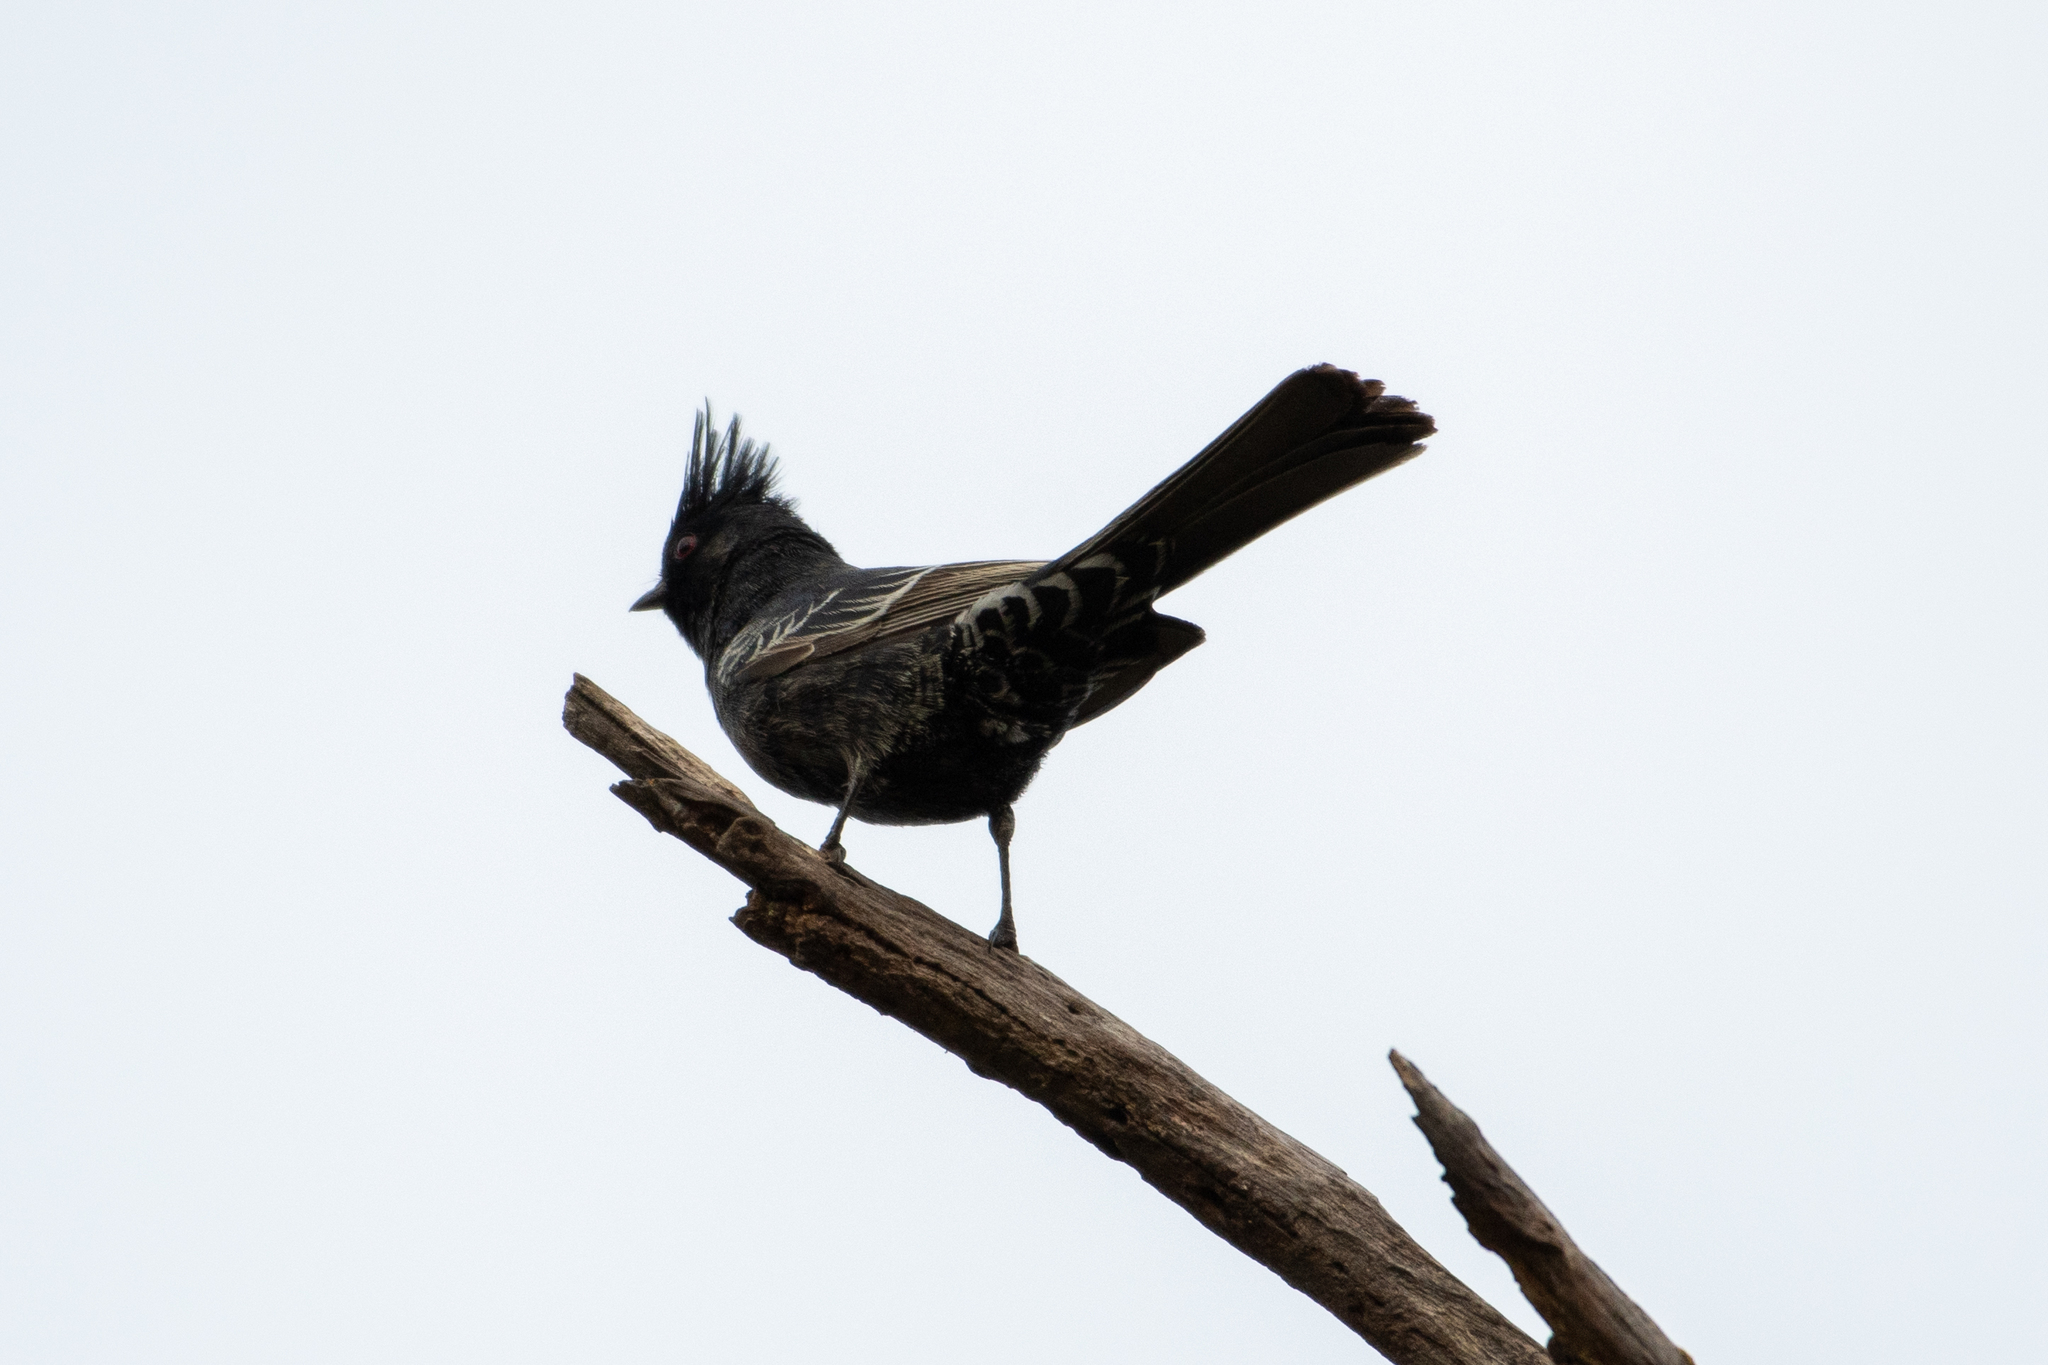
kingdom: Animalia
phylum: Chordata
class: Aves
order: Passeriformes
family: Ptilogonatidae
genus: Phainopepla
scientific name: Phainopepla nitens
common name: Phainopepla
